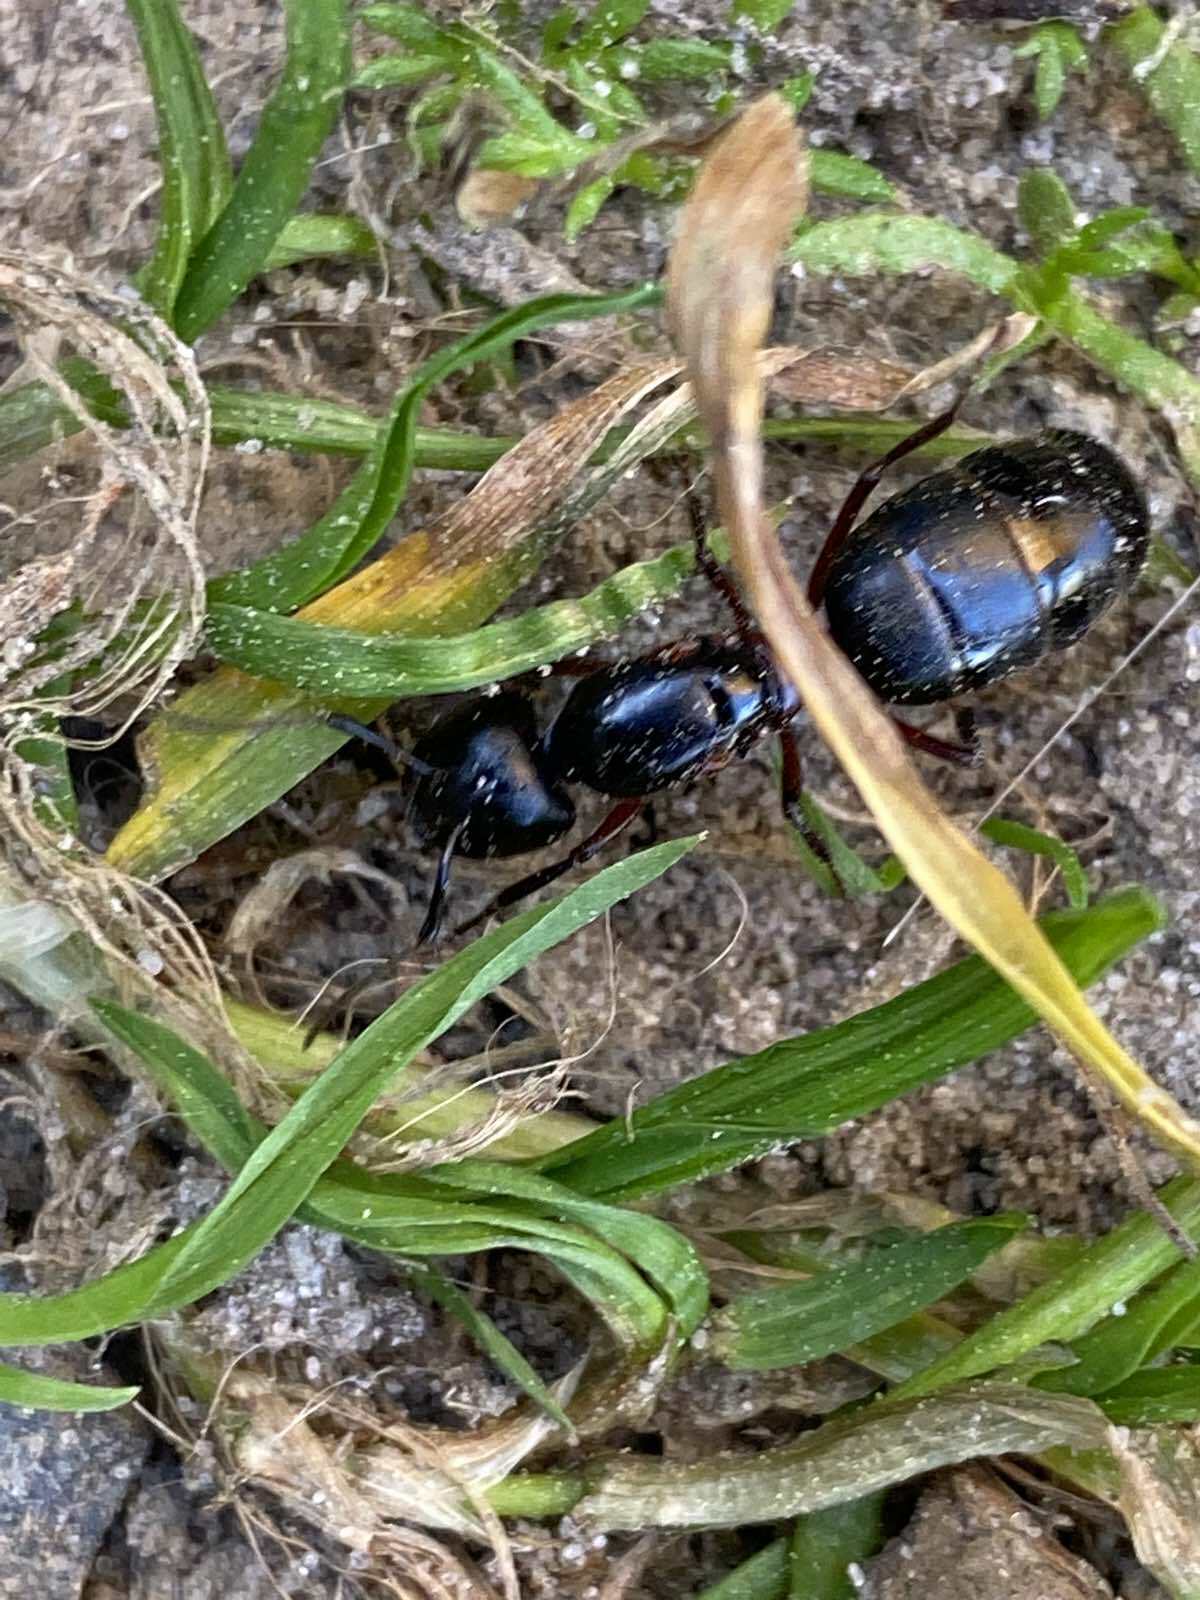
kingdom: Animalia
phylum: Arthropoda
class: Insecta
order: Hymenoptera
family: Formicidae
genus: Camponotus
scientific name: Camponotus herculeanus
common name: Hercules ant
